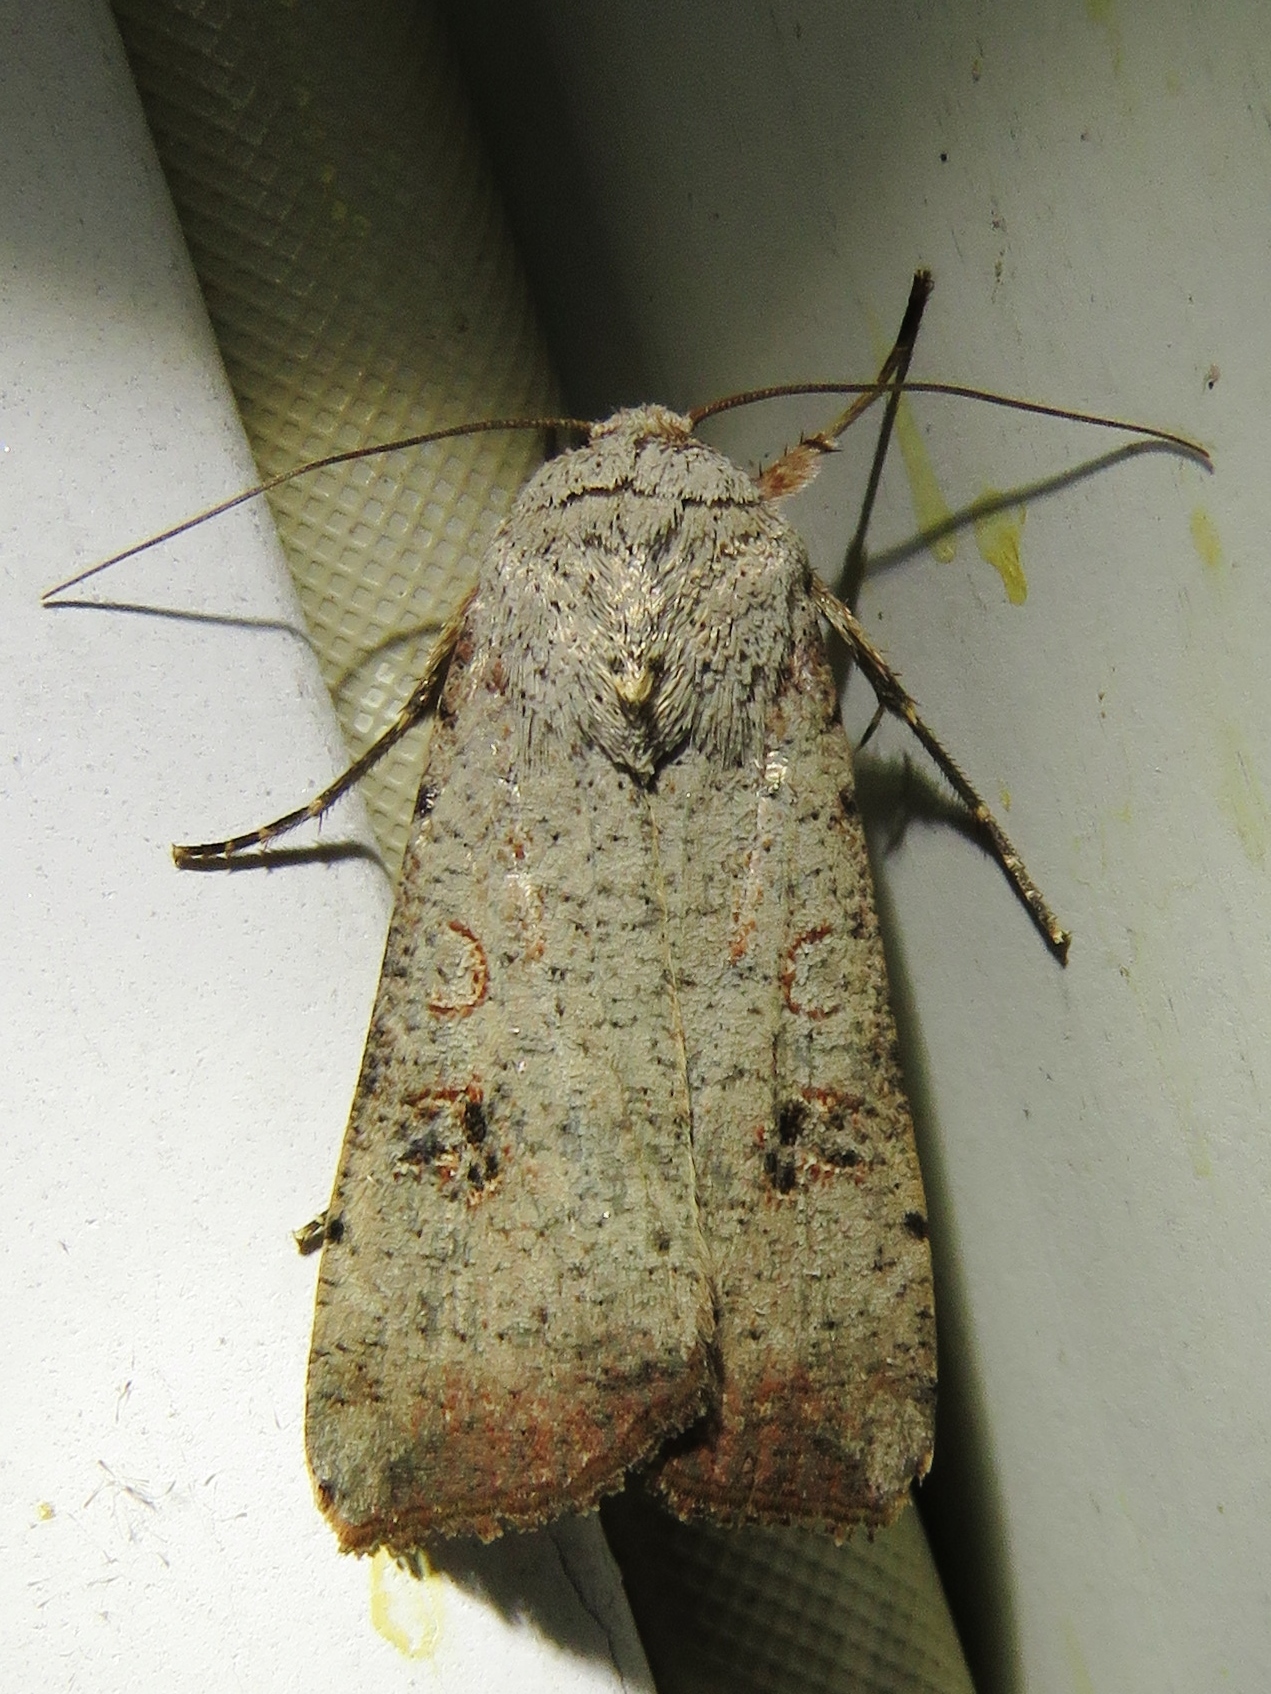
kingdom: Animalia
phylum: Arthropoda
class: Insecta
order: Lepidoptera
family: Noctuidae
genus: Anicla
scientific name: Anicla infecta
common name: Green cutworm
